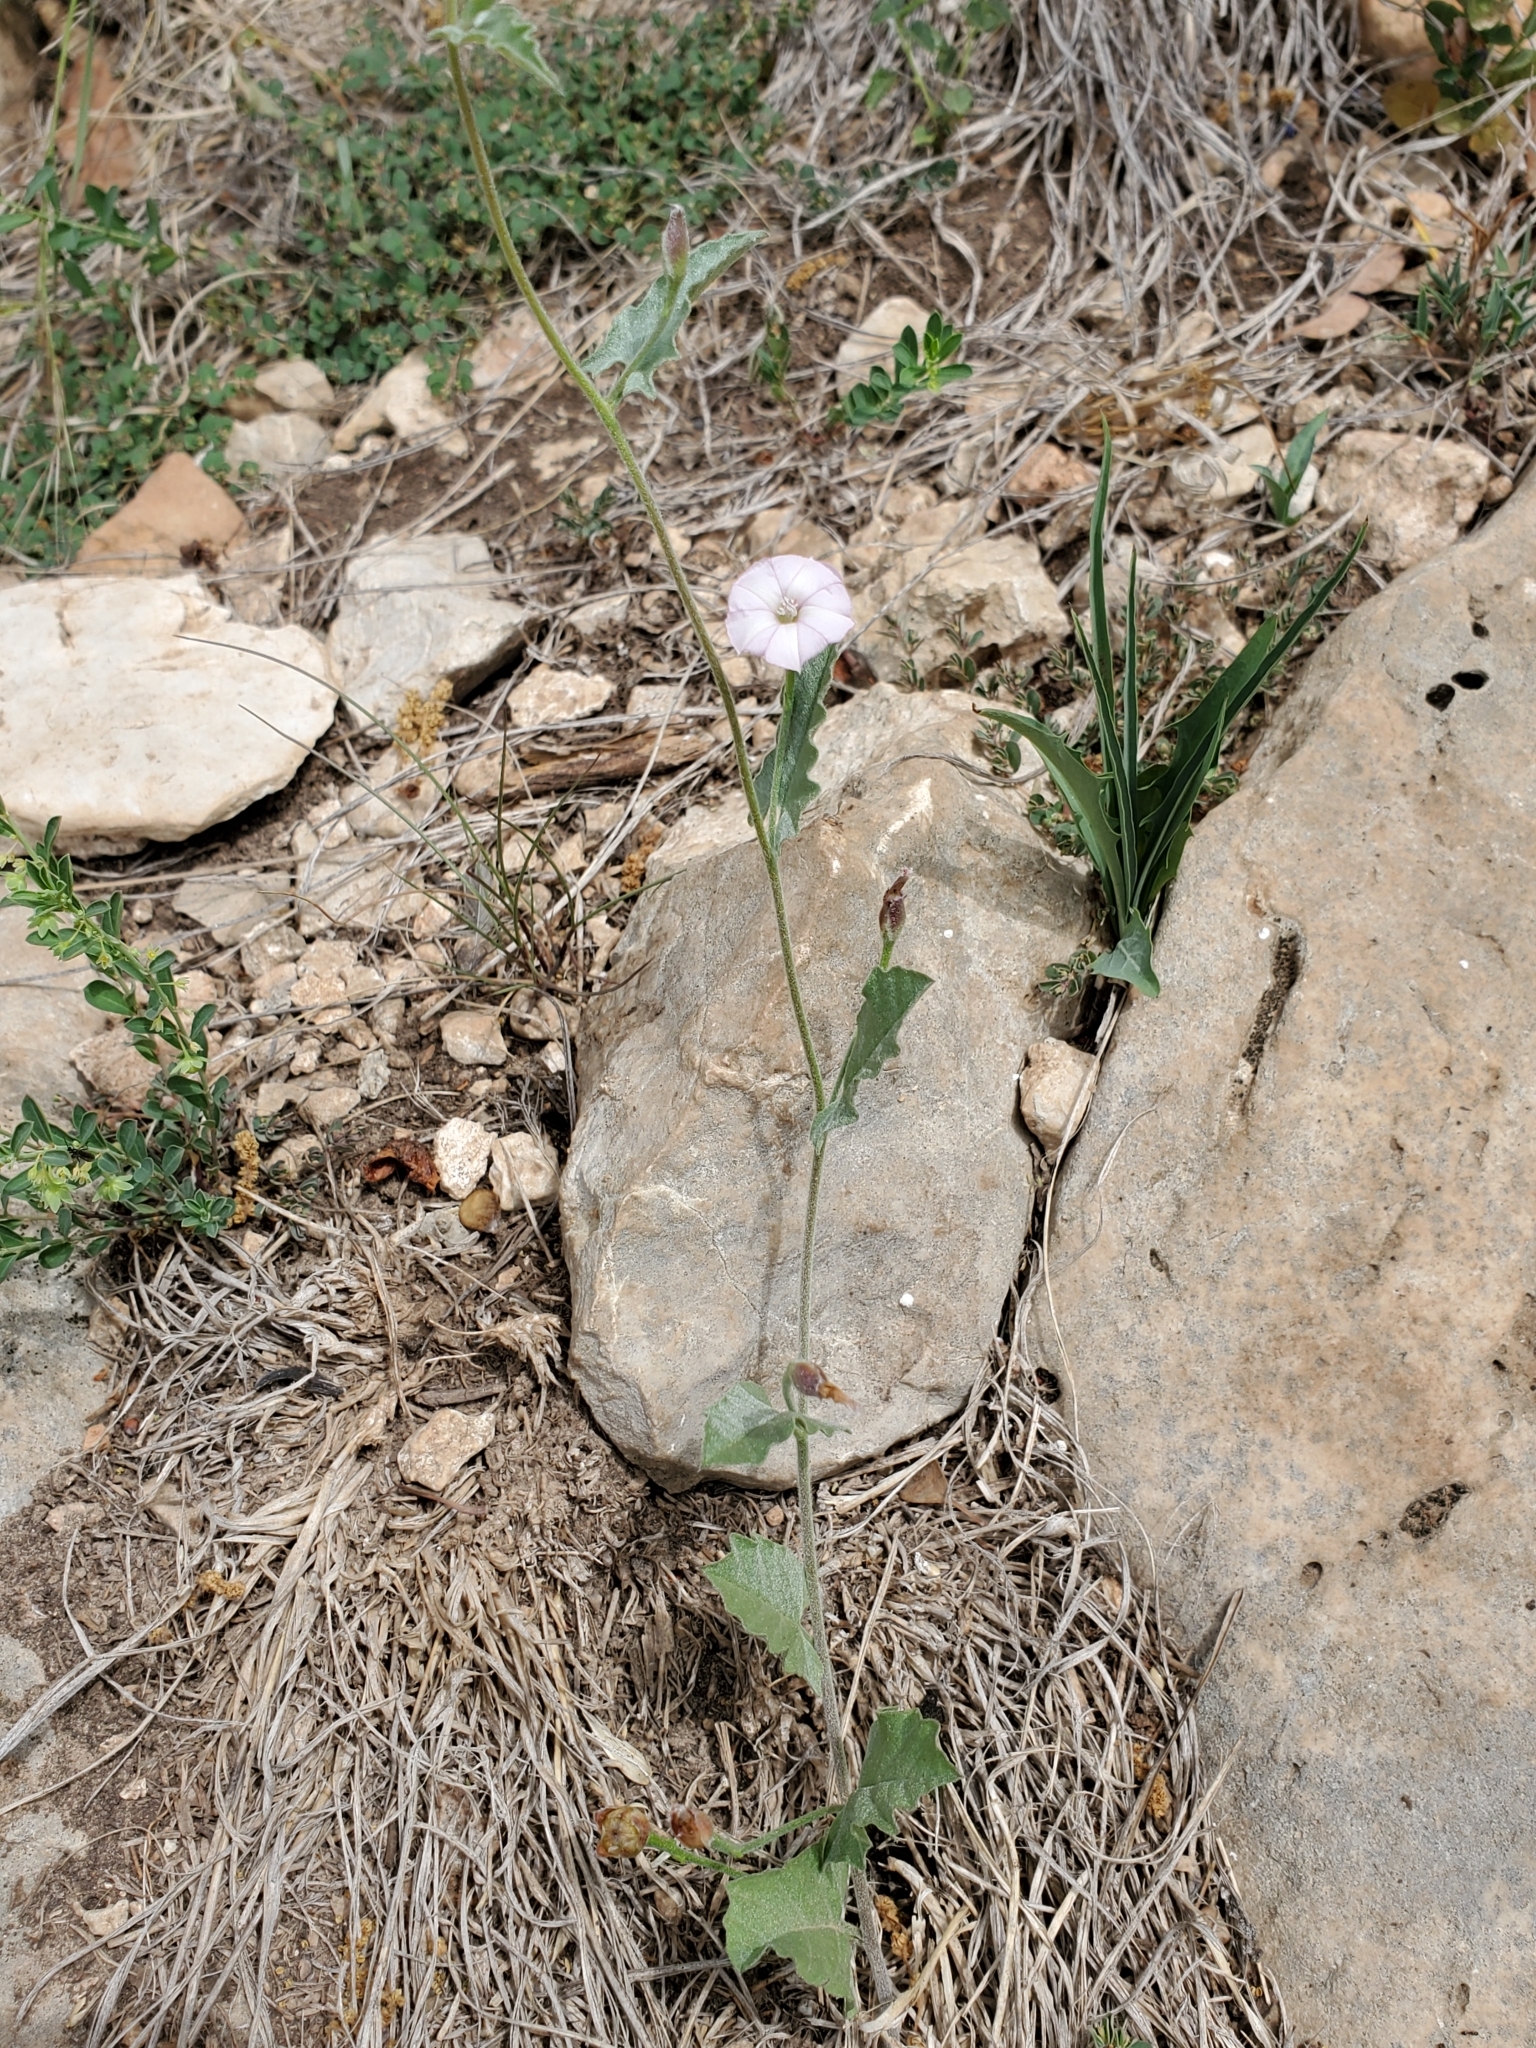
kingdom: Plantae
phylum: Tracheophyta
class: Magnoliopsida
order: Solanales
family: Convolvulaceae
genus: Convolvulus
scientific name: Convolvulus equitans
